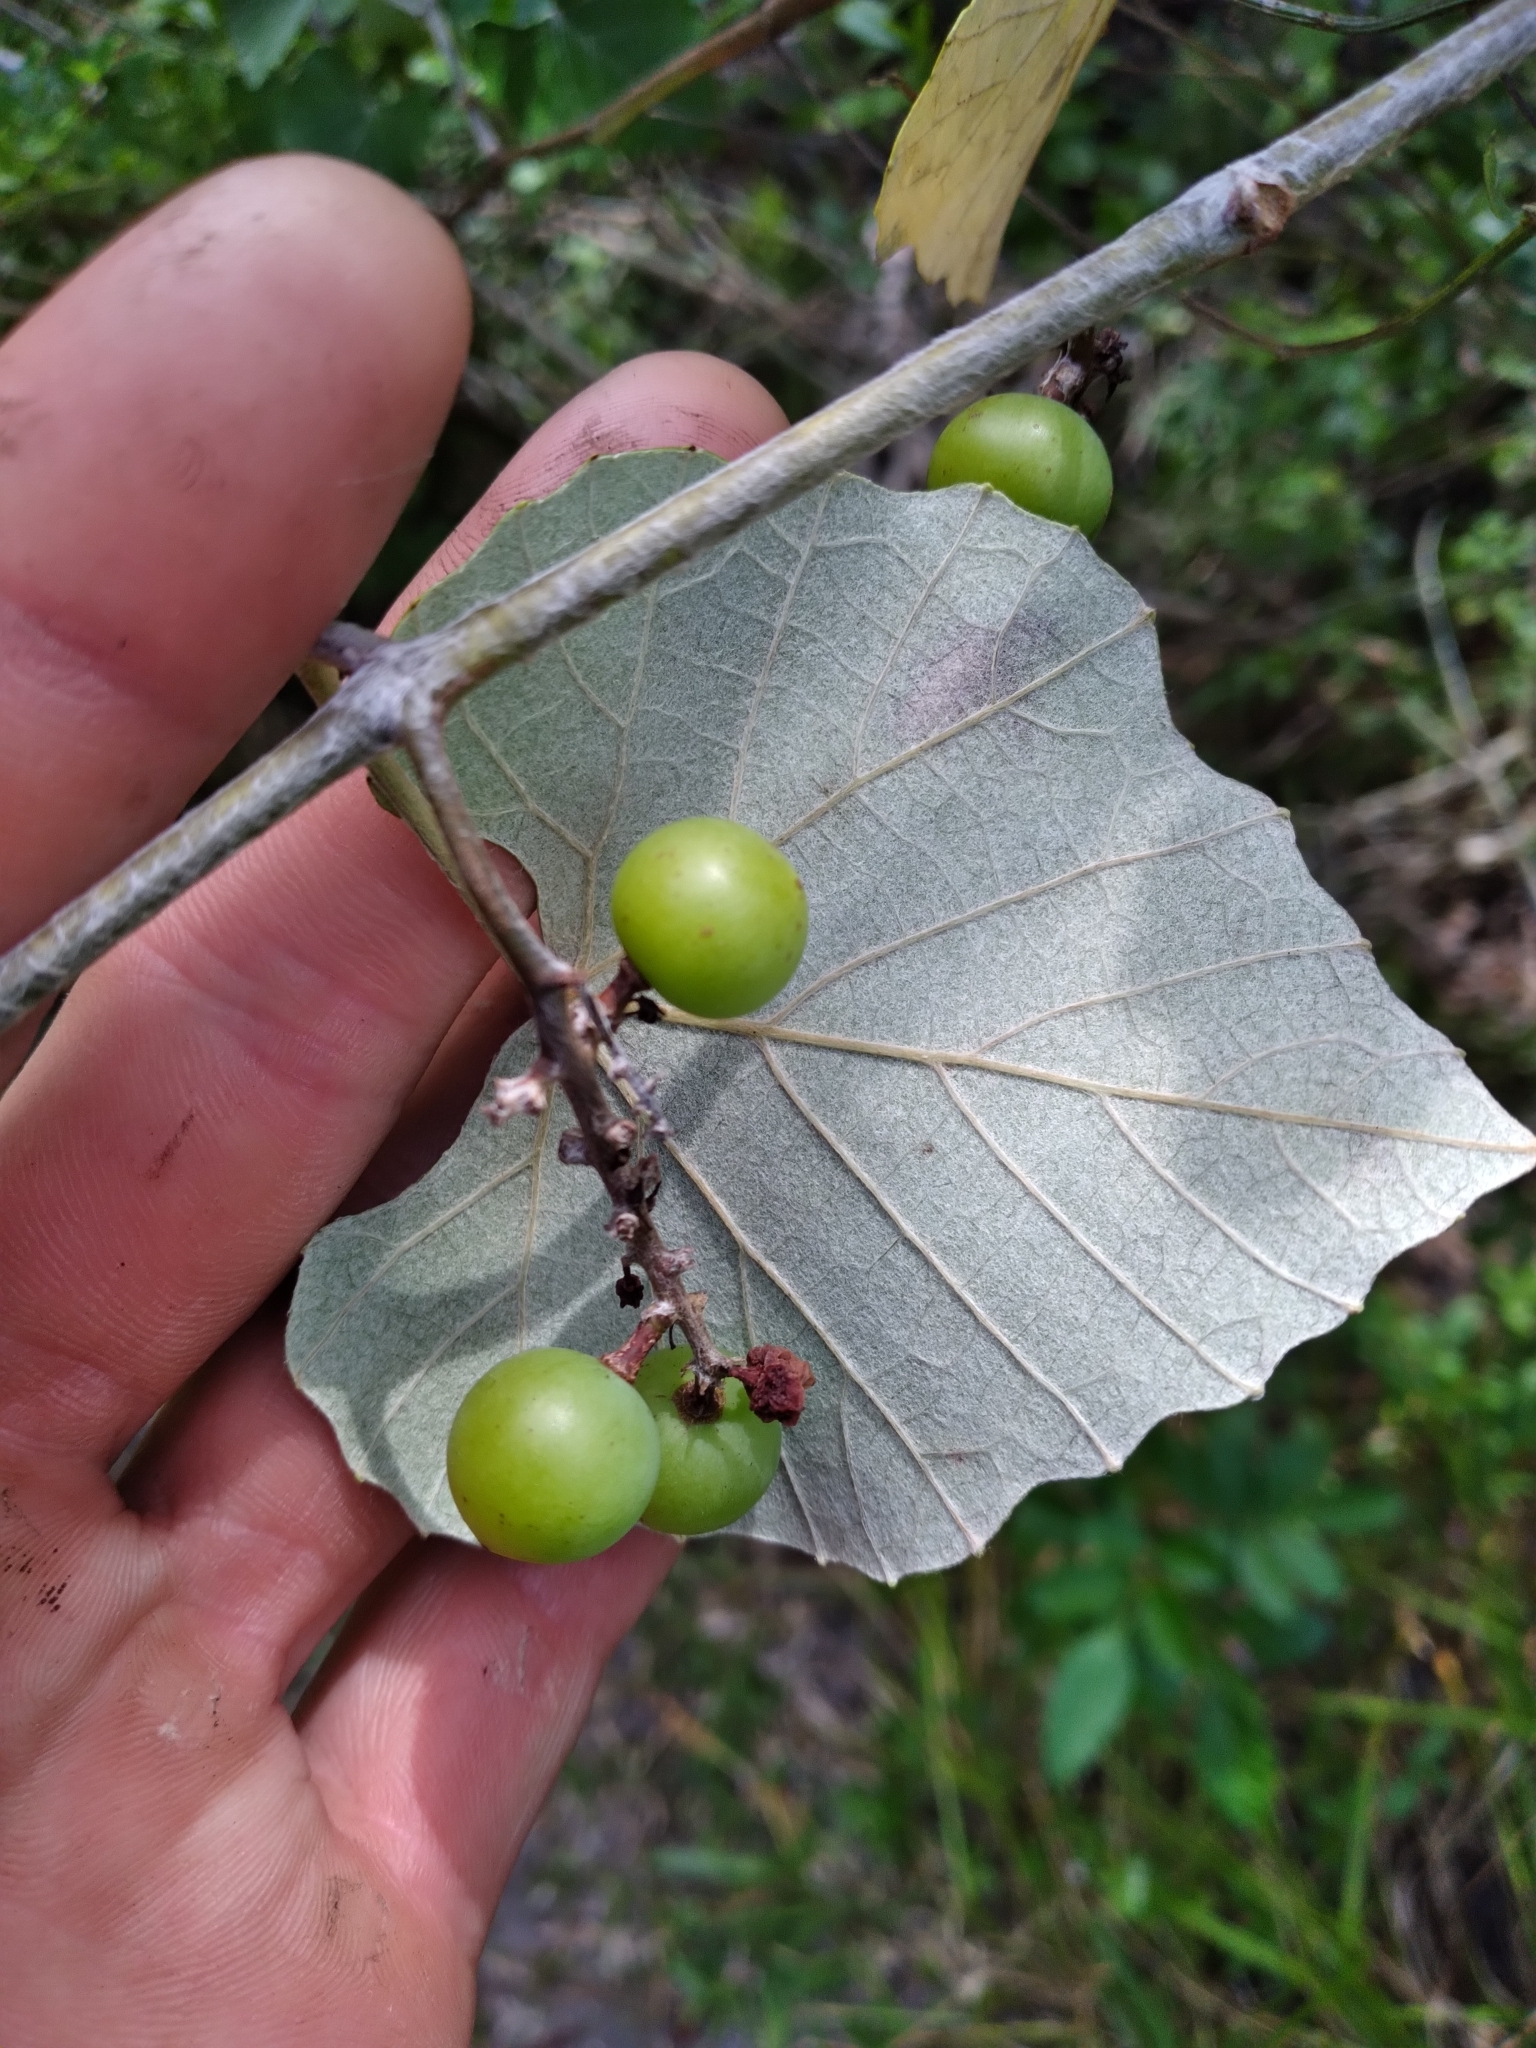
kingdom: Plantae
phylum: Tracheophyta
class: Magnoliopsida
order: Vitales
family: Vitaceae
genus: Vitis
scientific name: Vitis shuttleworthii
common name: Caloosa grape
